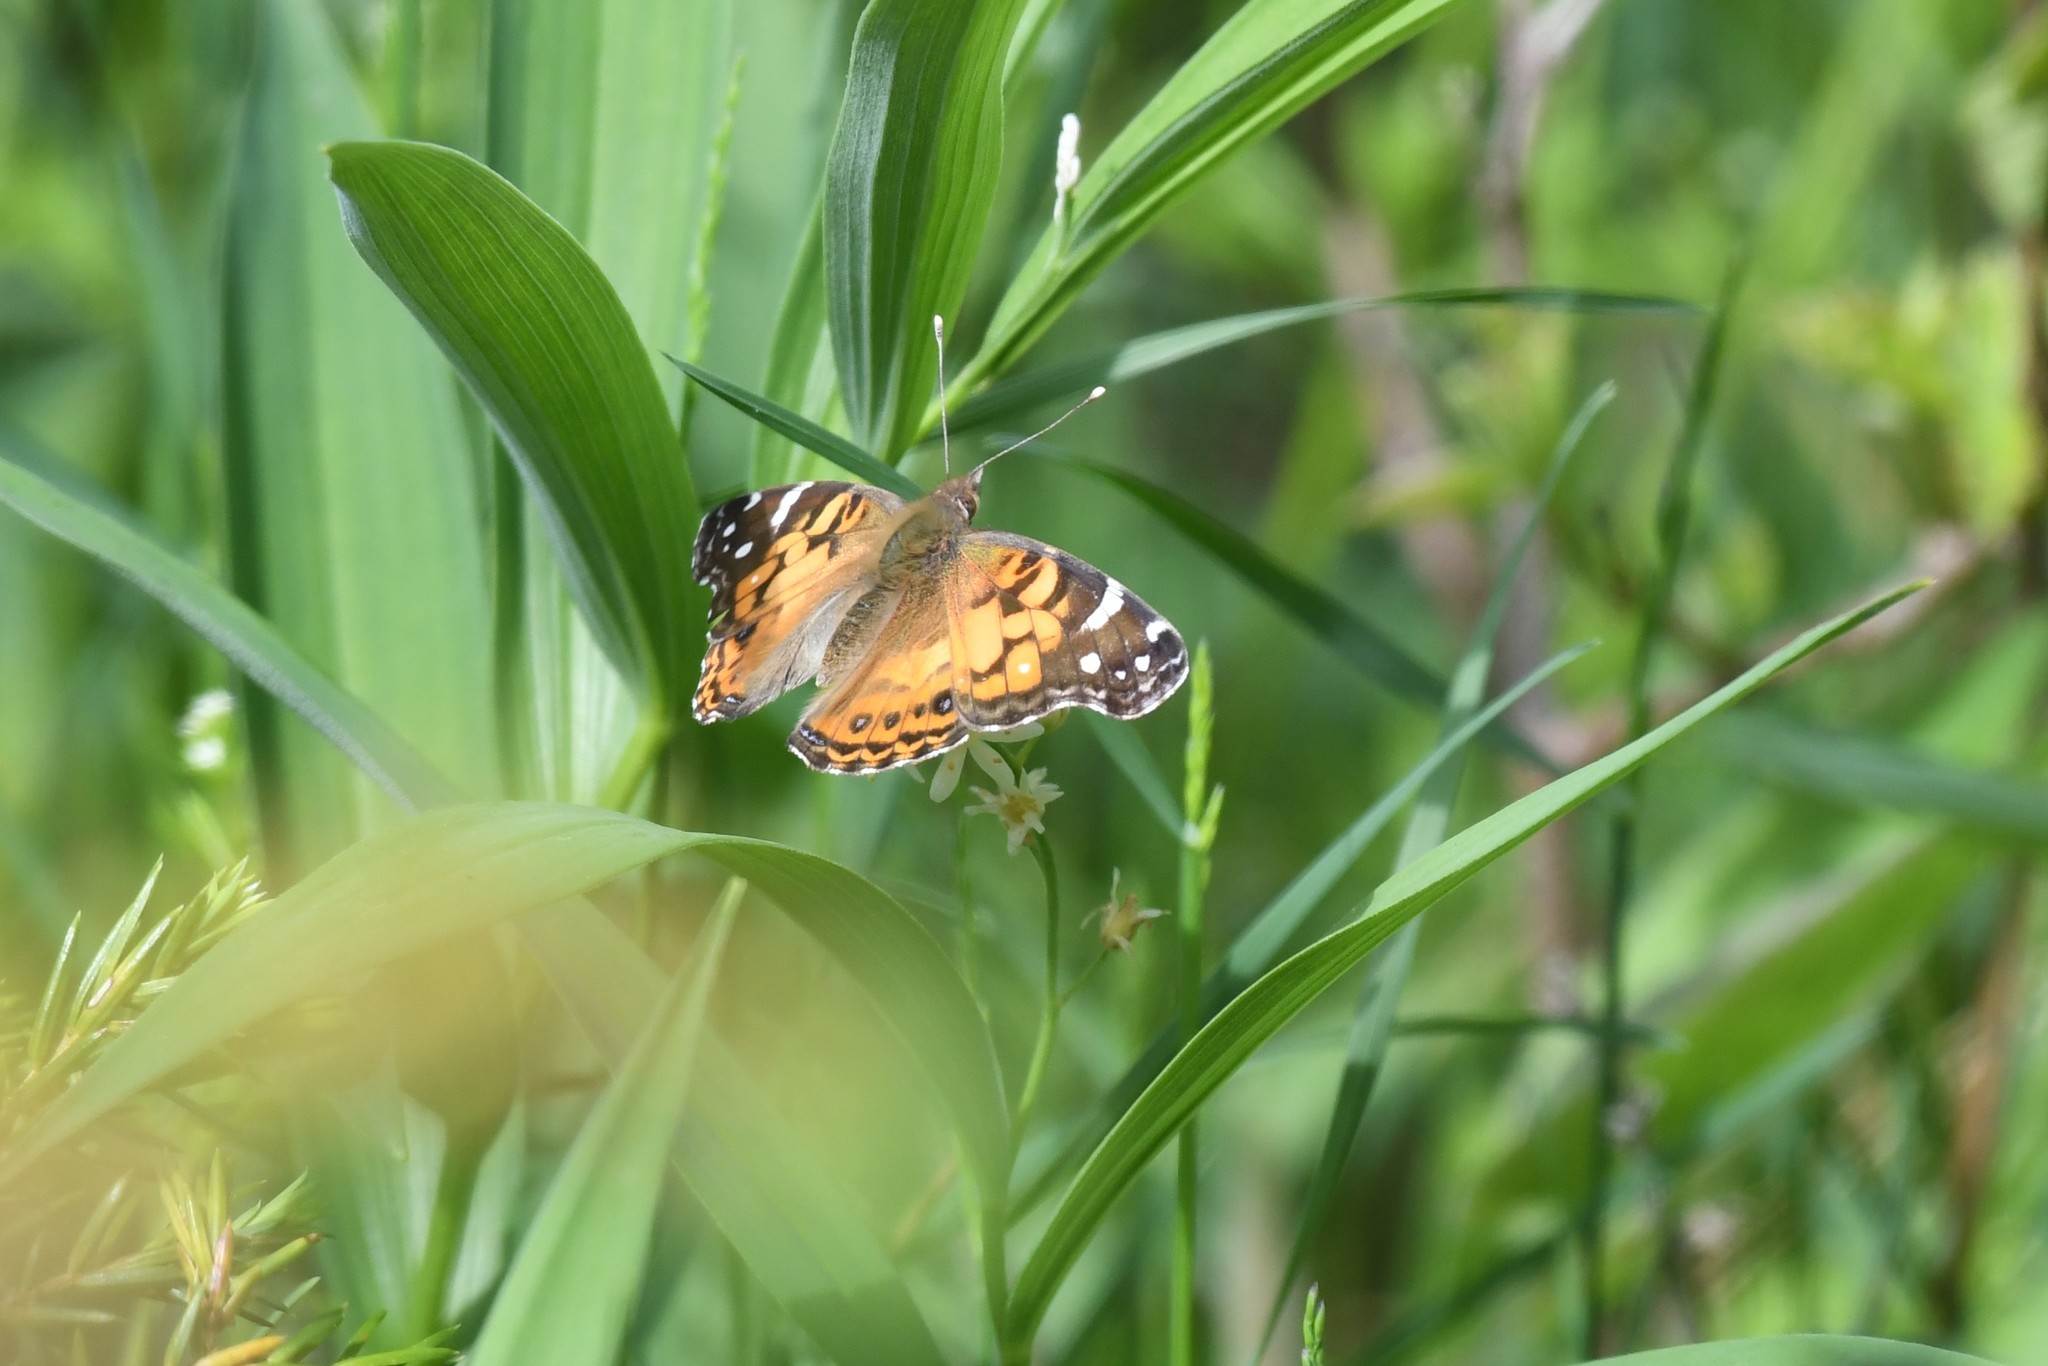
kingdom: Animalia
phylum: Arthropoda
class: Insecta
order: Lepidoptera
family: Nymphalidae
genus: Vanessa
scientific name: Vanessa virginiensis
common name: American lady
